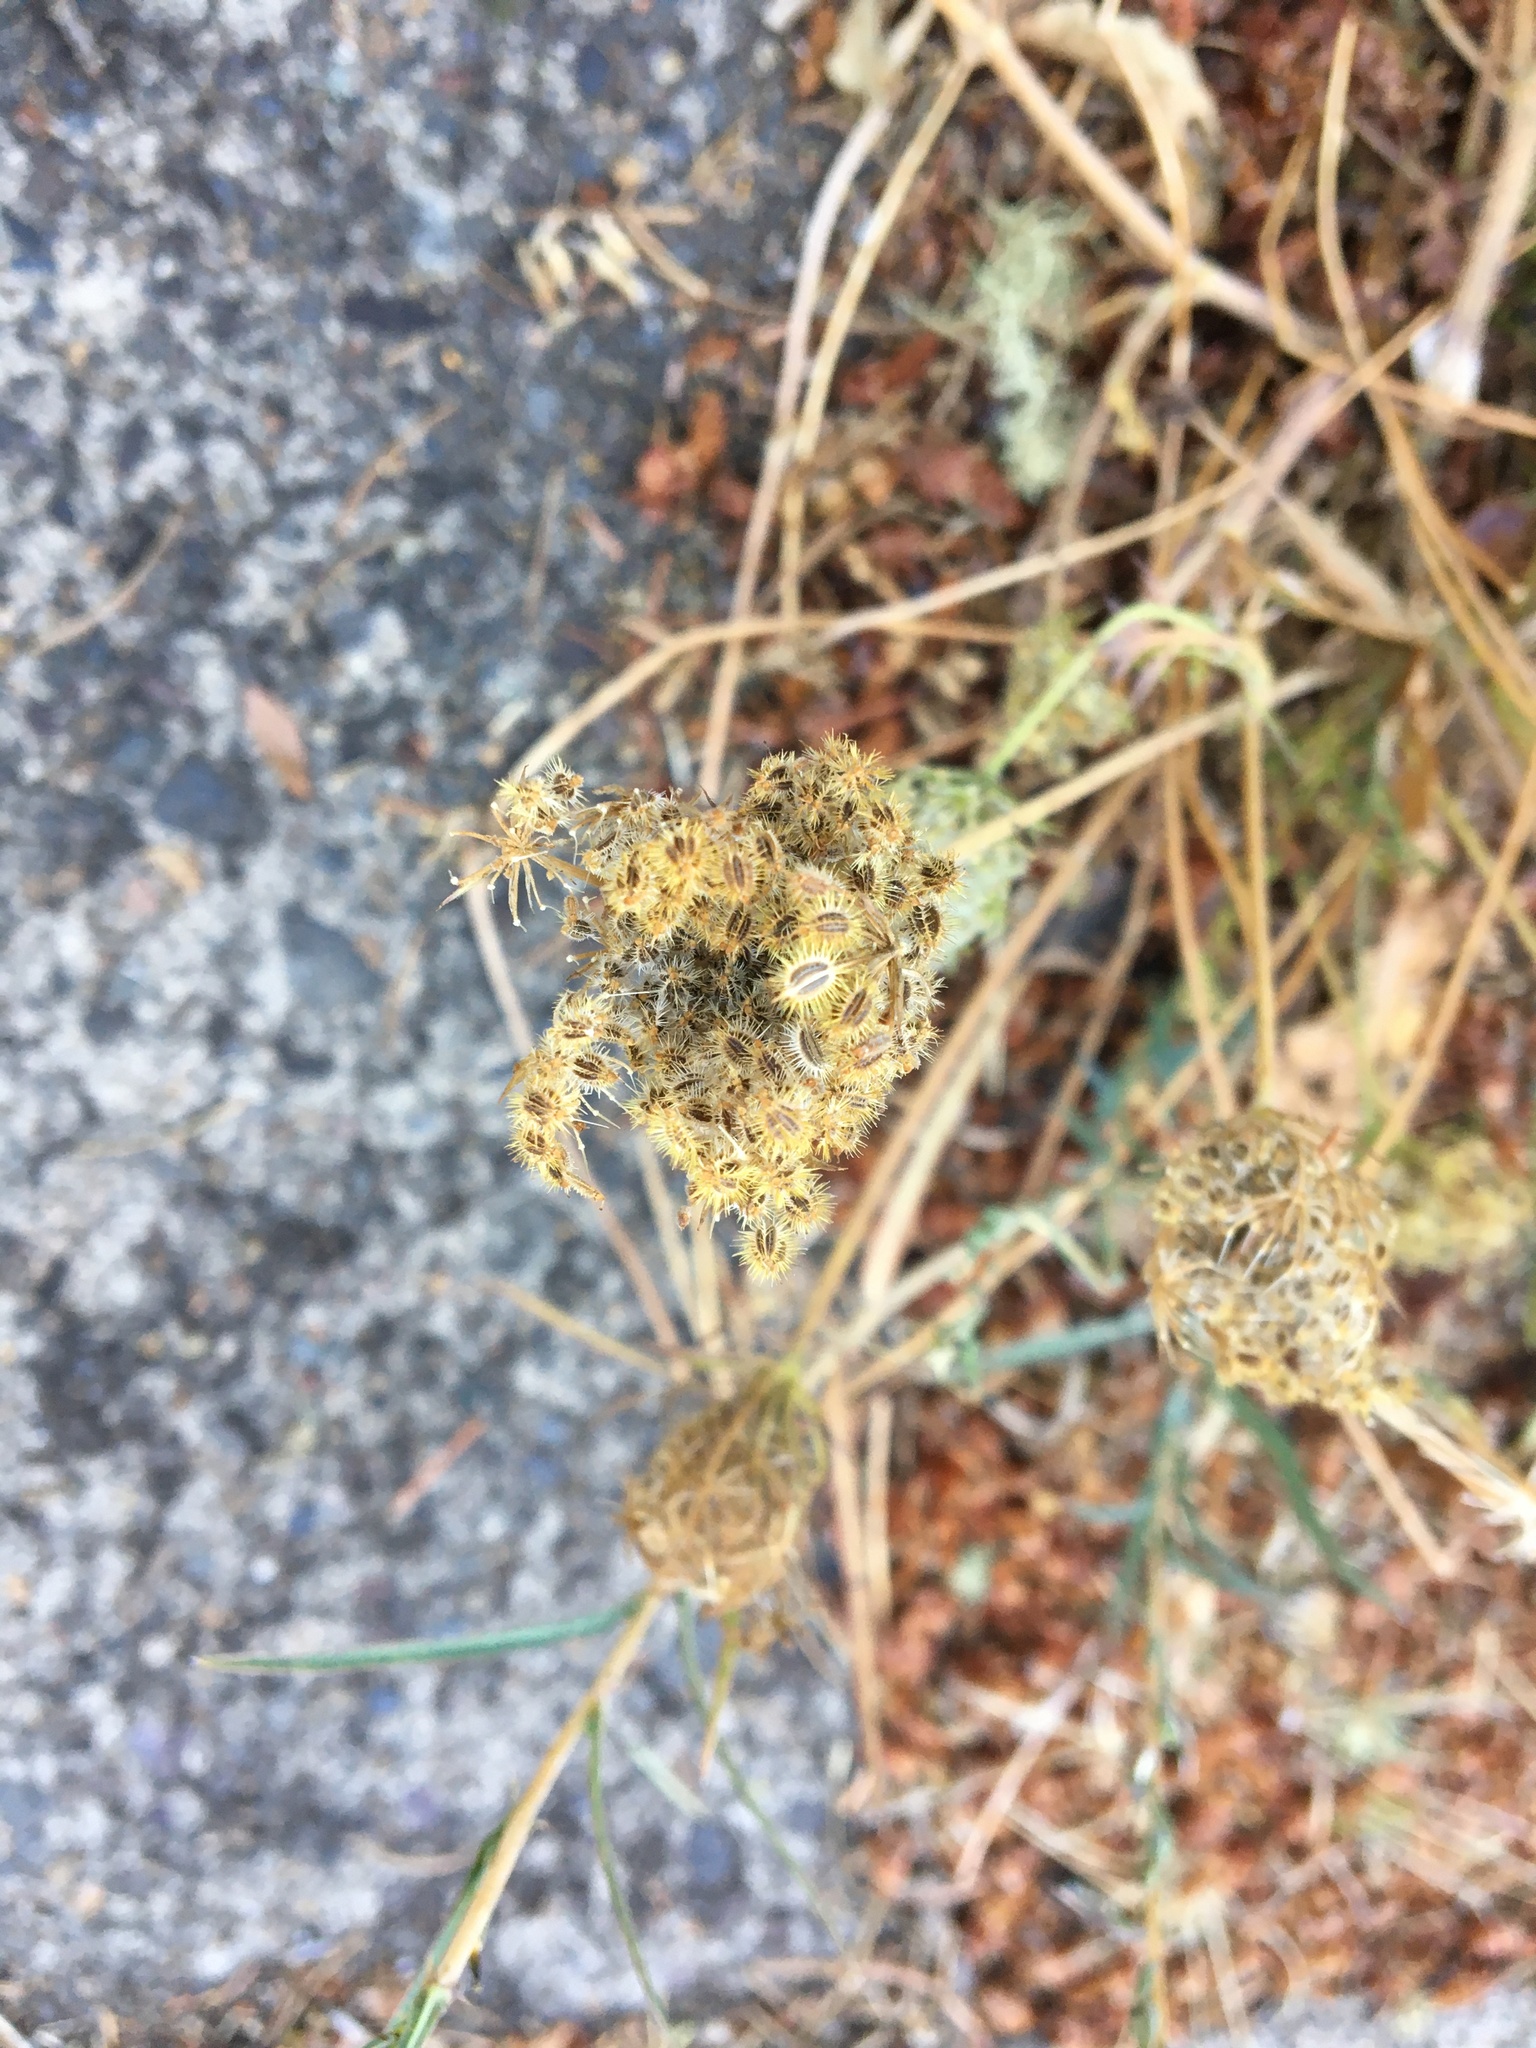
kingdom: Plantae
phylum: Tracheophyta
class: Magnoliopsida
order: Apiales
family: Apiaceae
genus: Daucus
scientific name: Daucus carota
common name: Wild carrot
